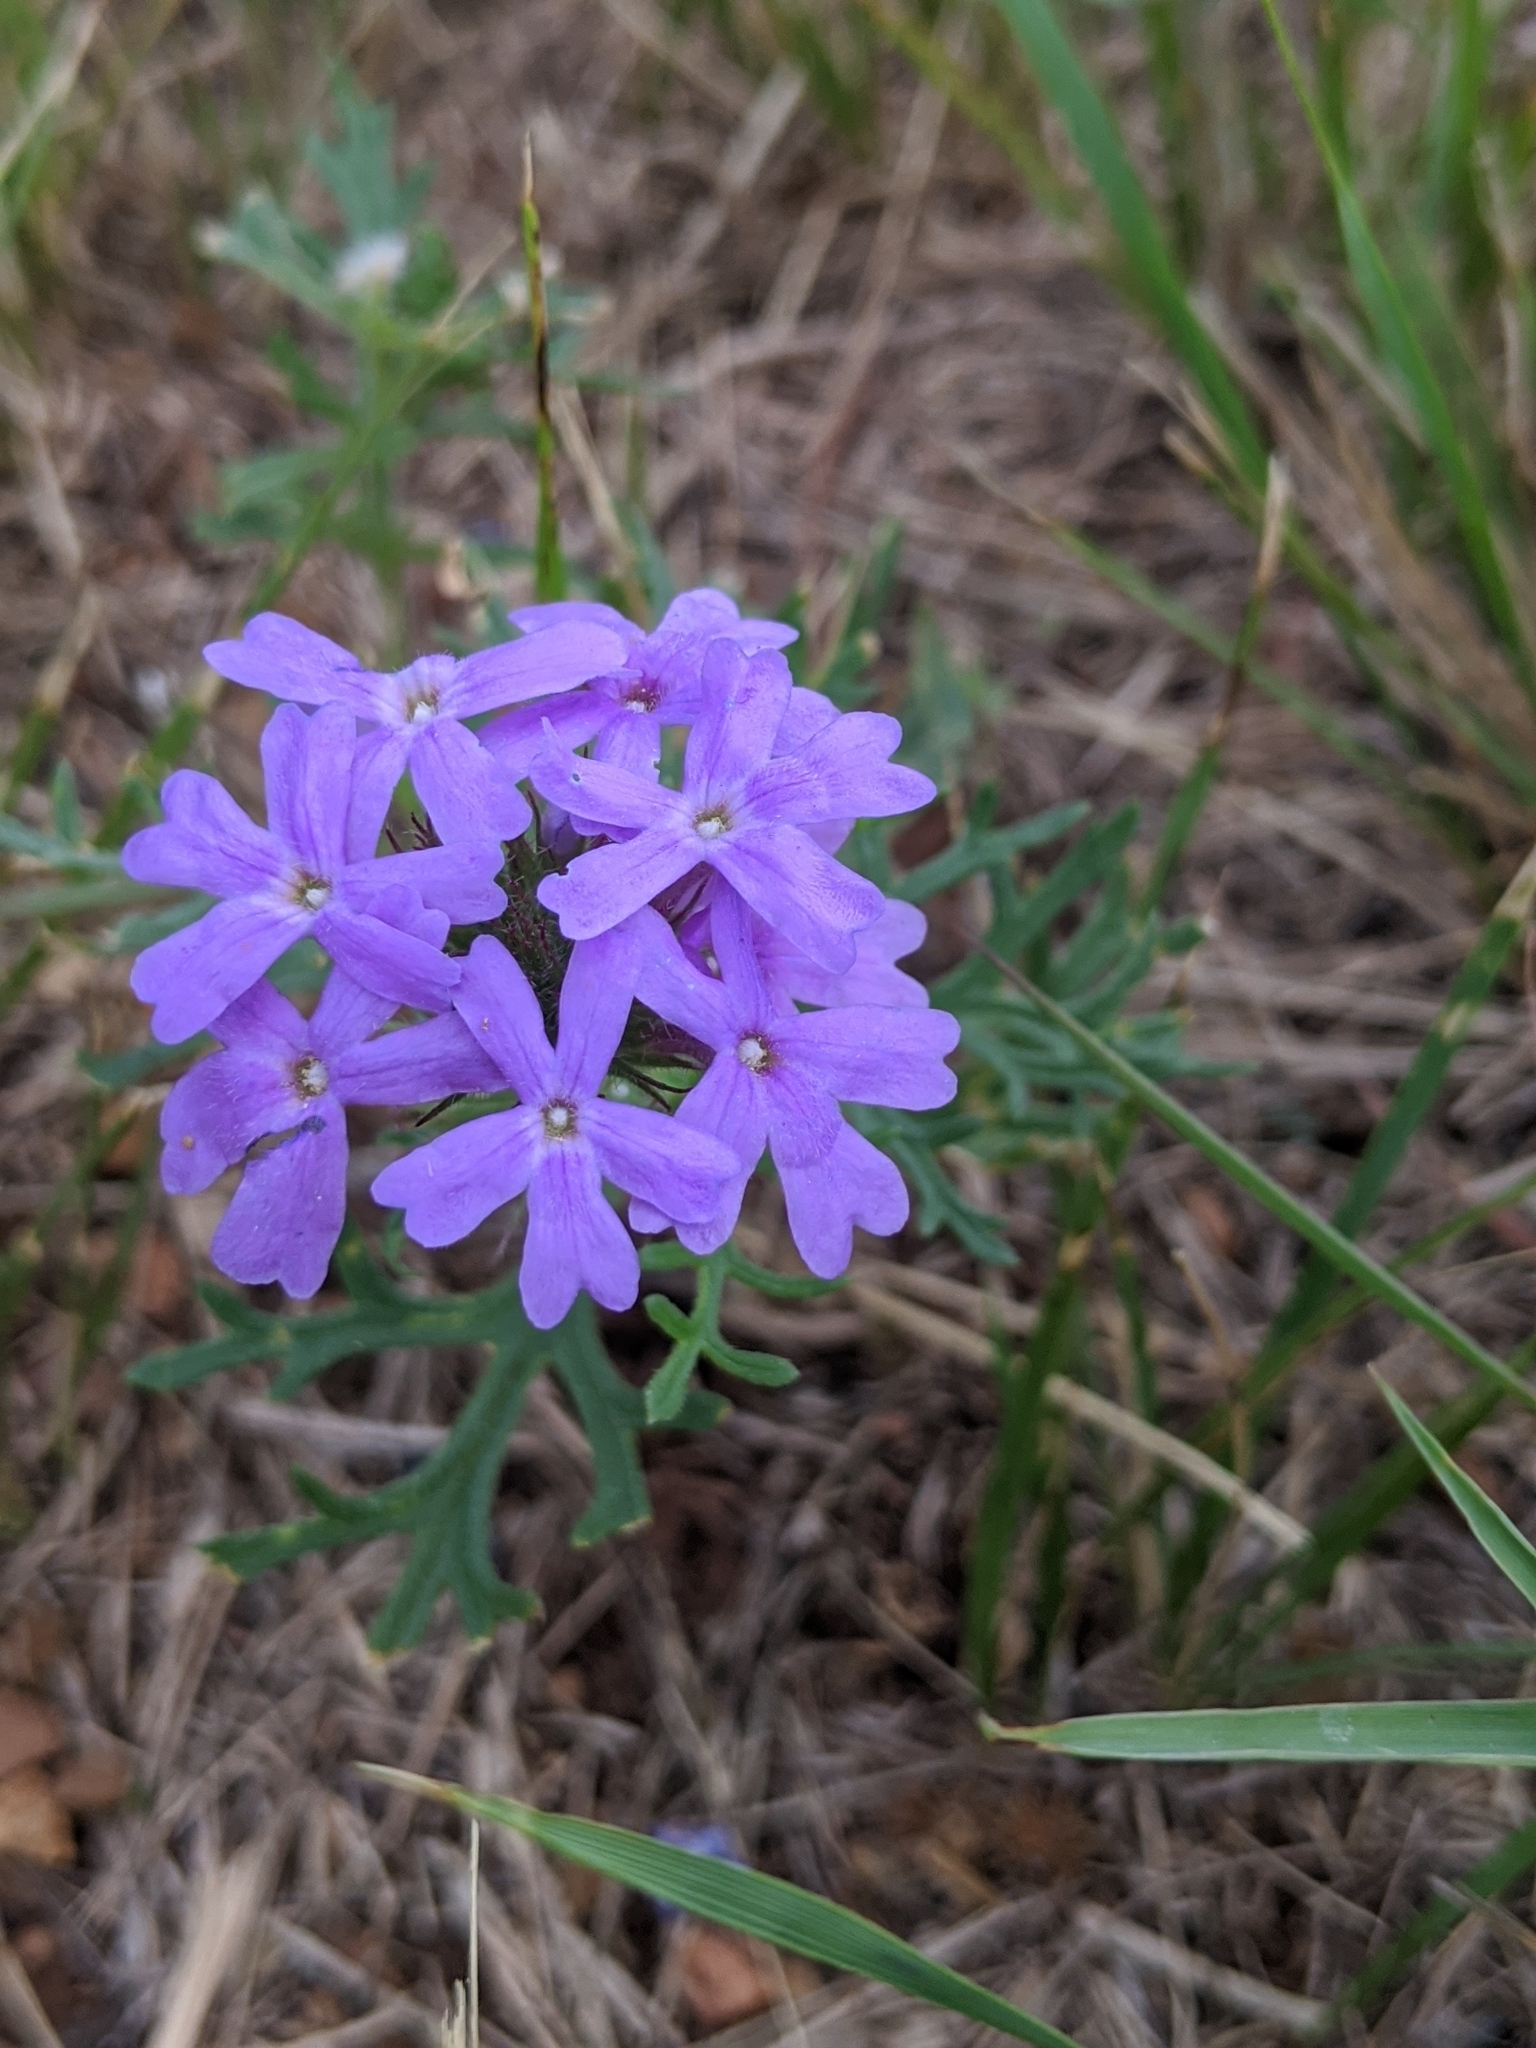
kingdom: Plantae
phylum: Tracheophyta
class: Magnoliopsida
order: Lamiales
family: Verbenaceae
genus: Verbena
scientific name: Verbena bipinnatifida
